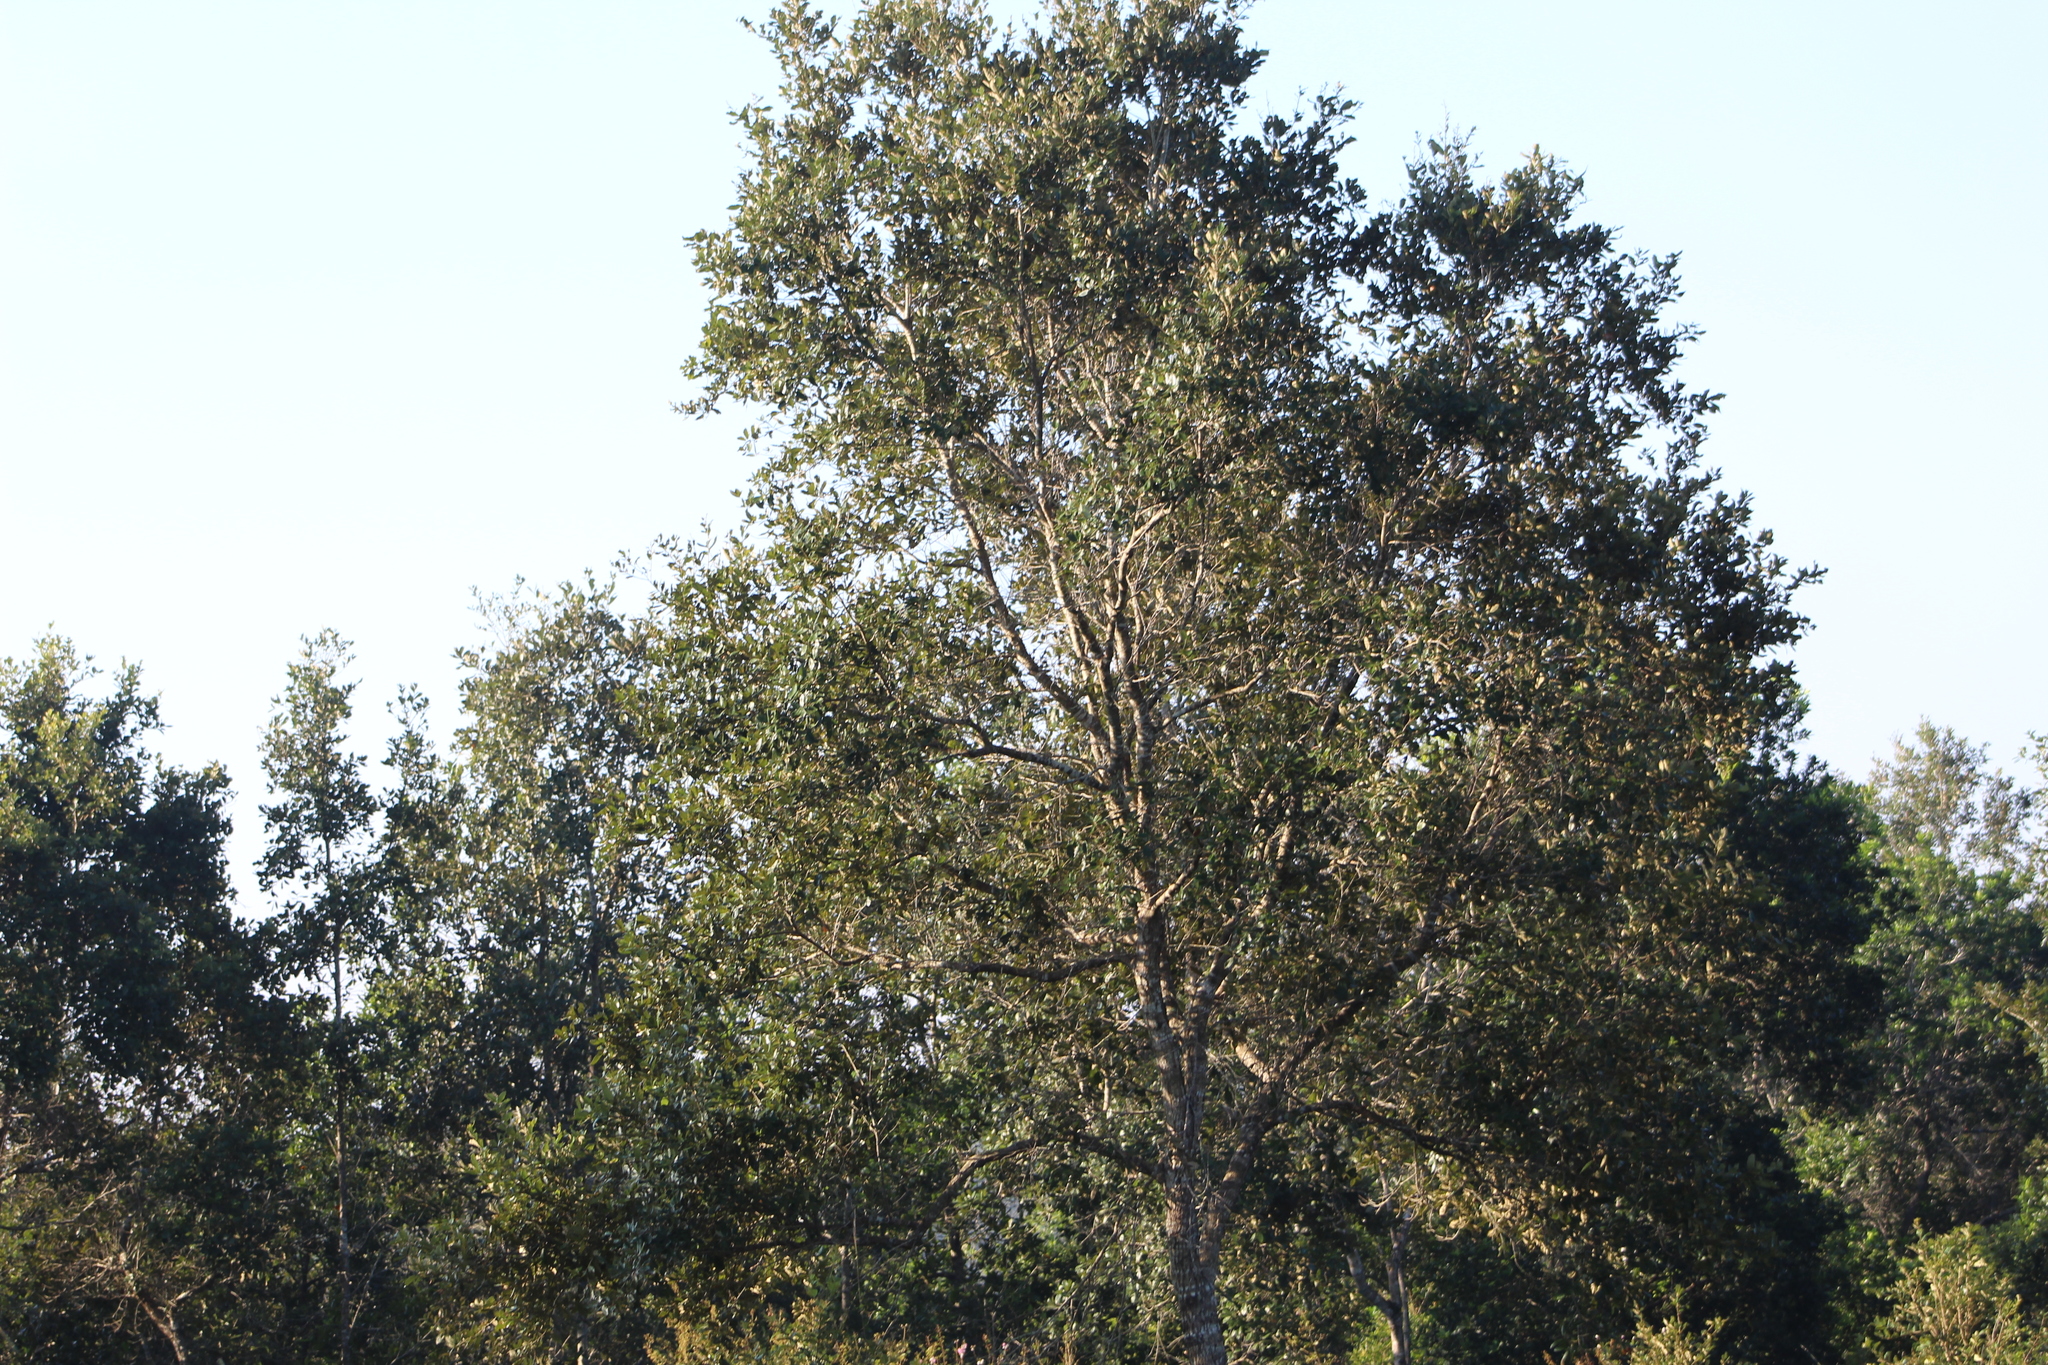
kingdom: Plantae
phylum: Tracheophyta
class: Magnoliopsida
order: Fagales
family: Fagaceae
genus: Quercus
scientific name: Quercus oleoides
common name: White oak
